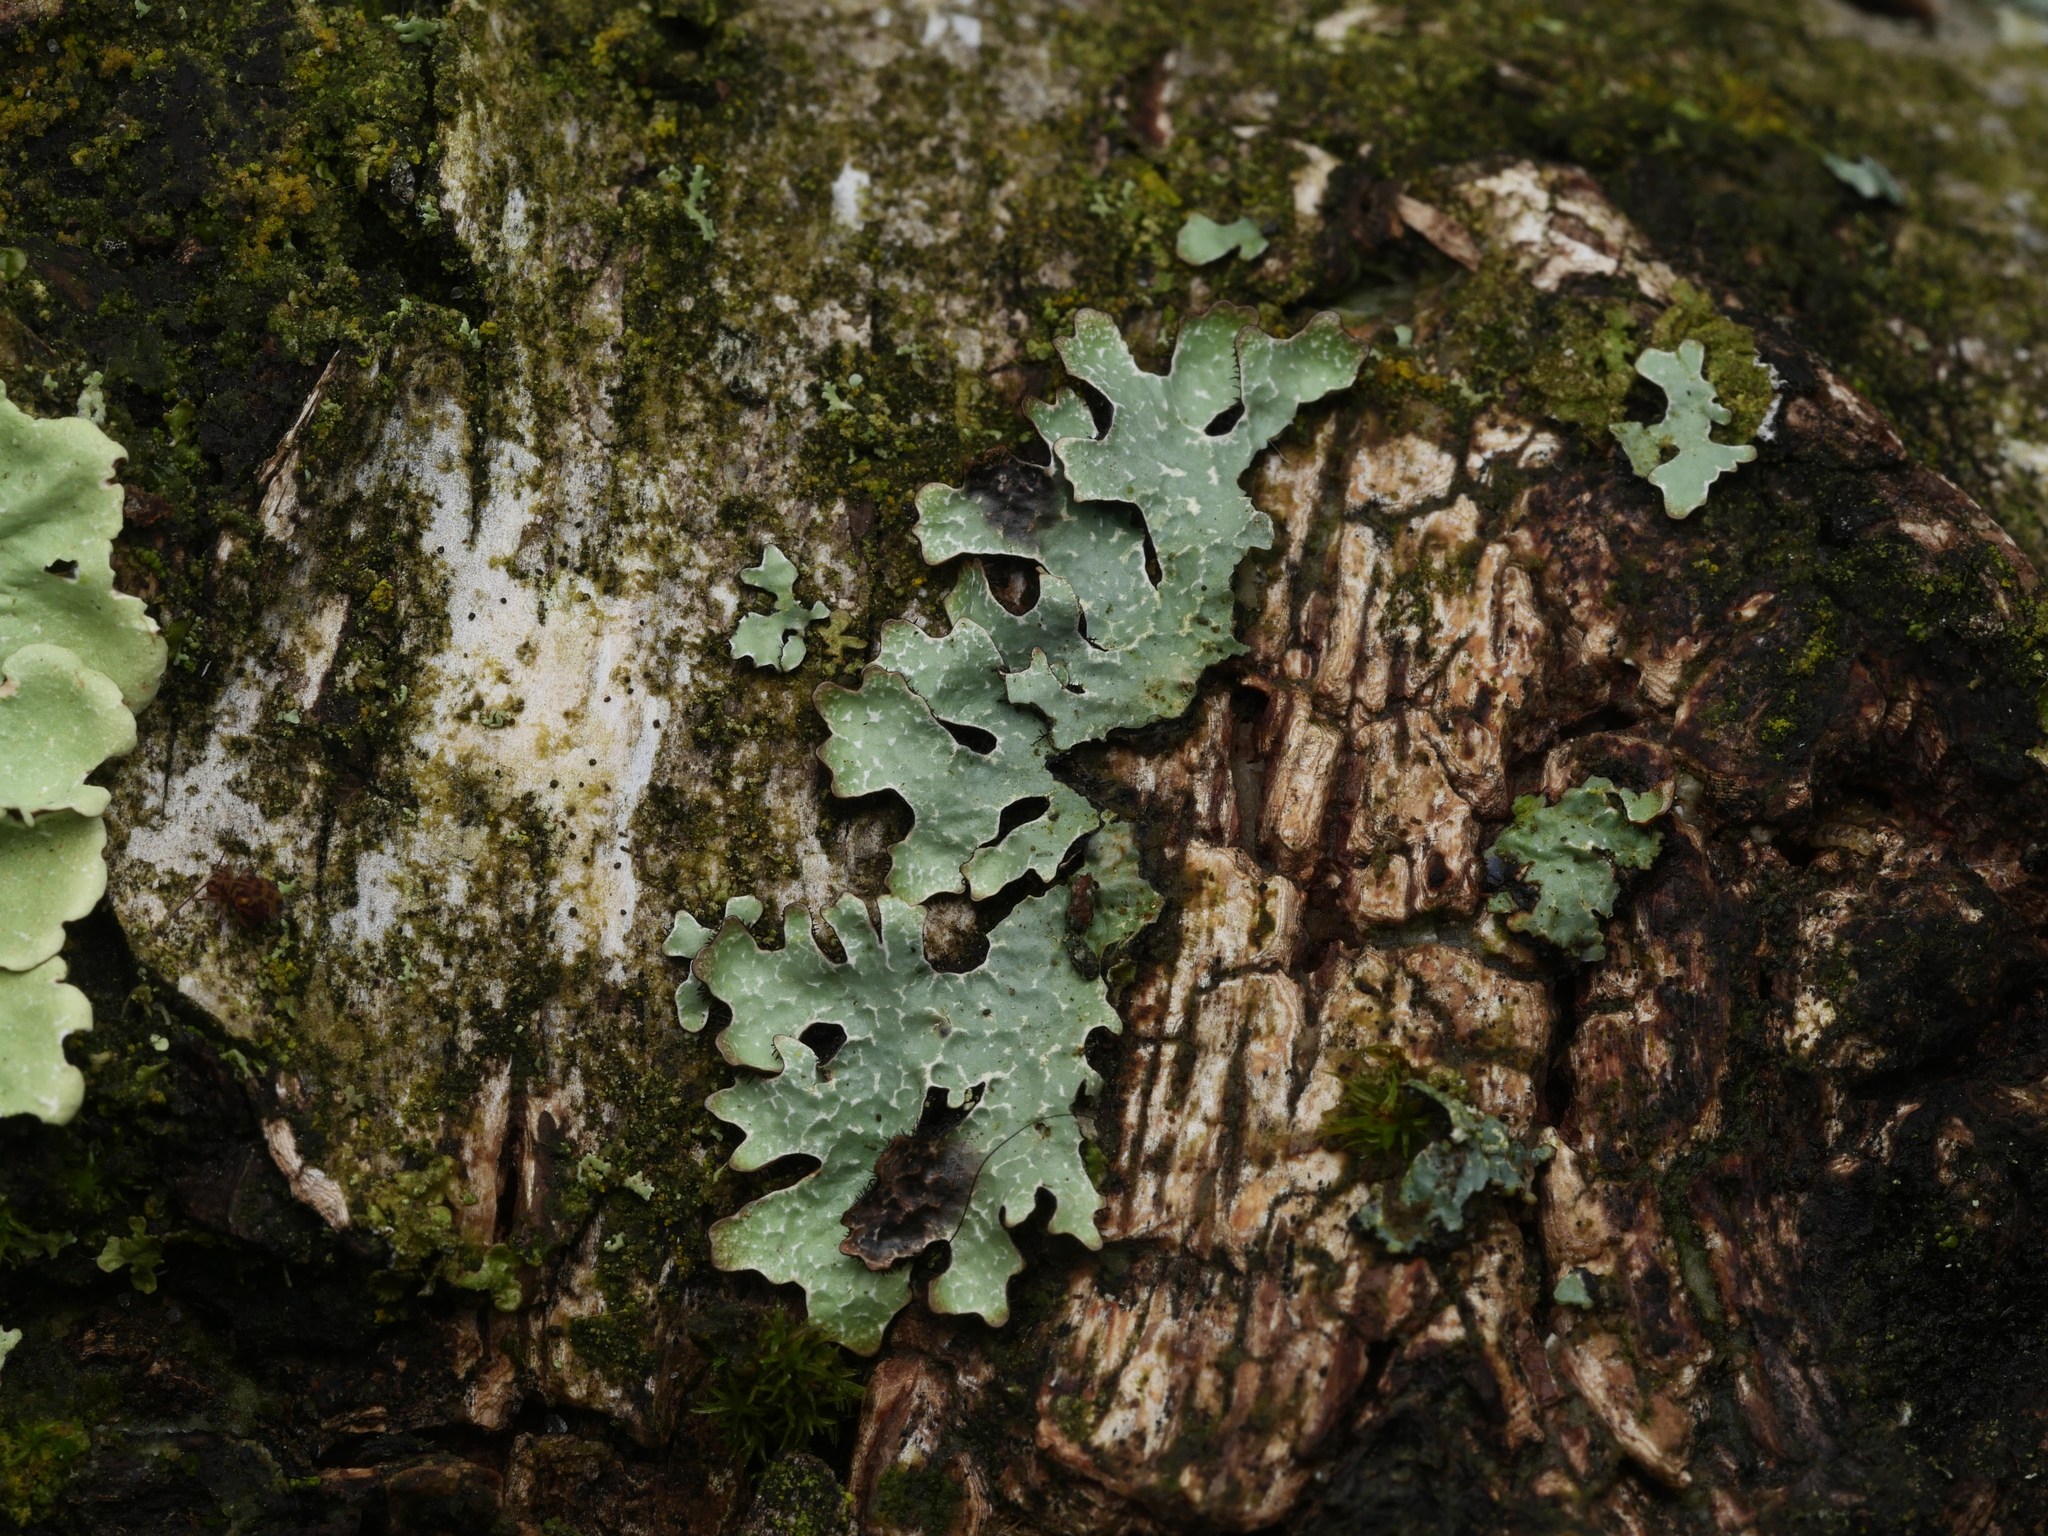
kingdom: Fungi
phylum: Ascomycota
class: Lecanoromycetes
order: Lecanorales
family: Parmeliaceae
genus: Parmelia
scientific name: Parmelia sulcata
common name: Netted shield lichen
